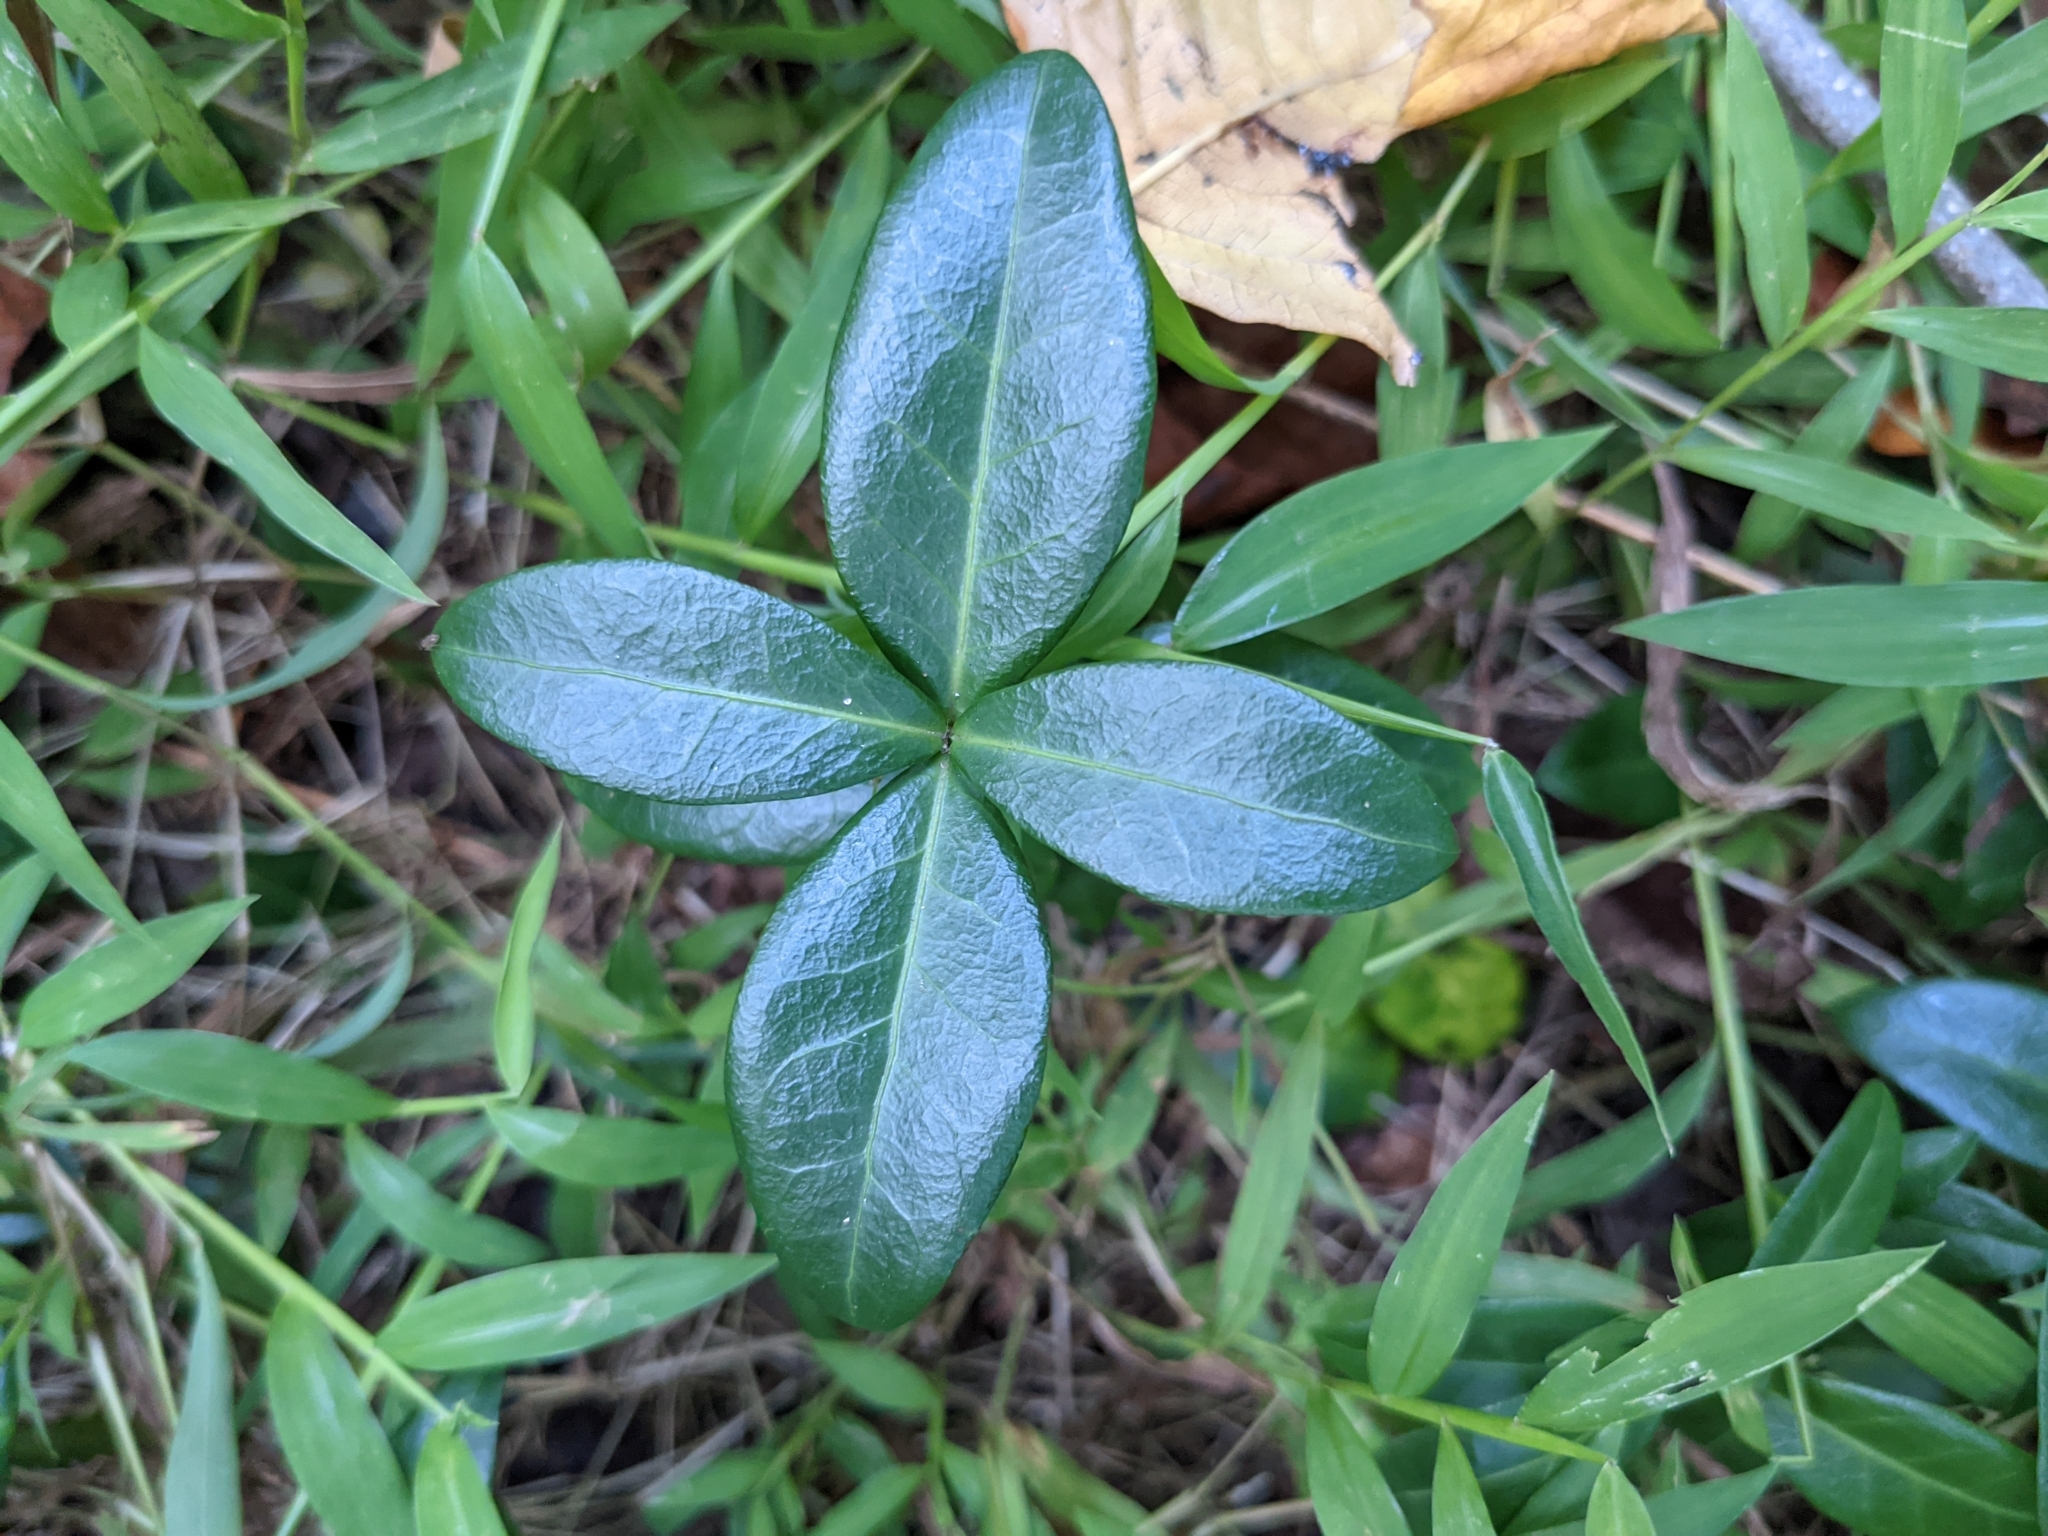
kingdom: Plantae
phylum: Tracheophyta
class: Magnoliopsida
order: Gentianales
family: Apocynaceae
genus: Vinca
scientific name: Vinca minor
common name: Lesser periwinkle
